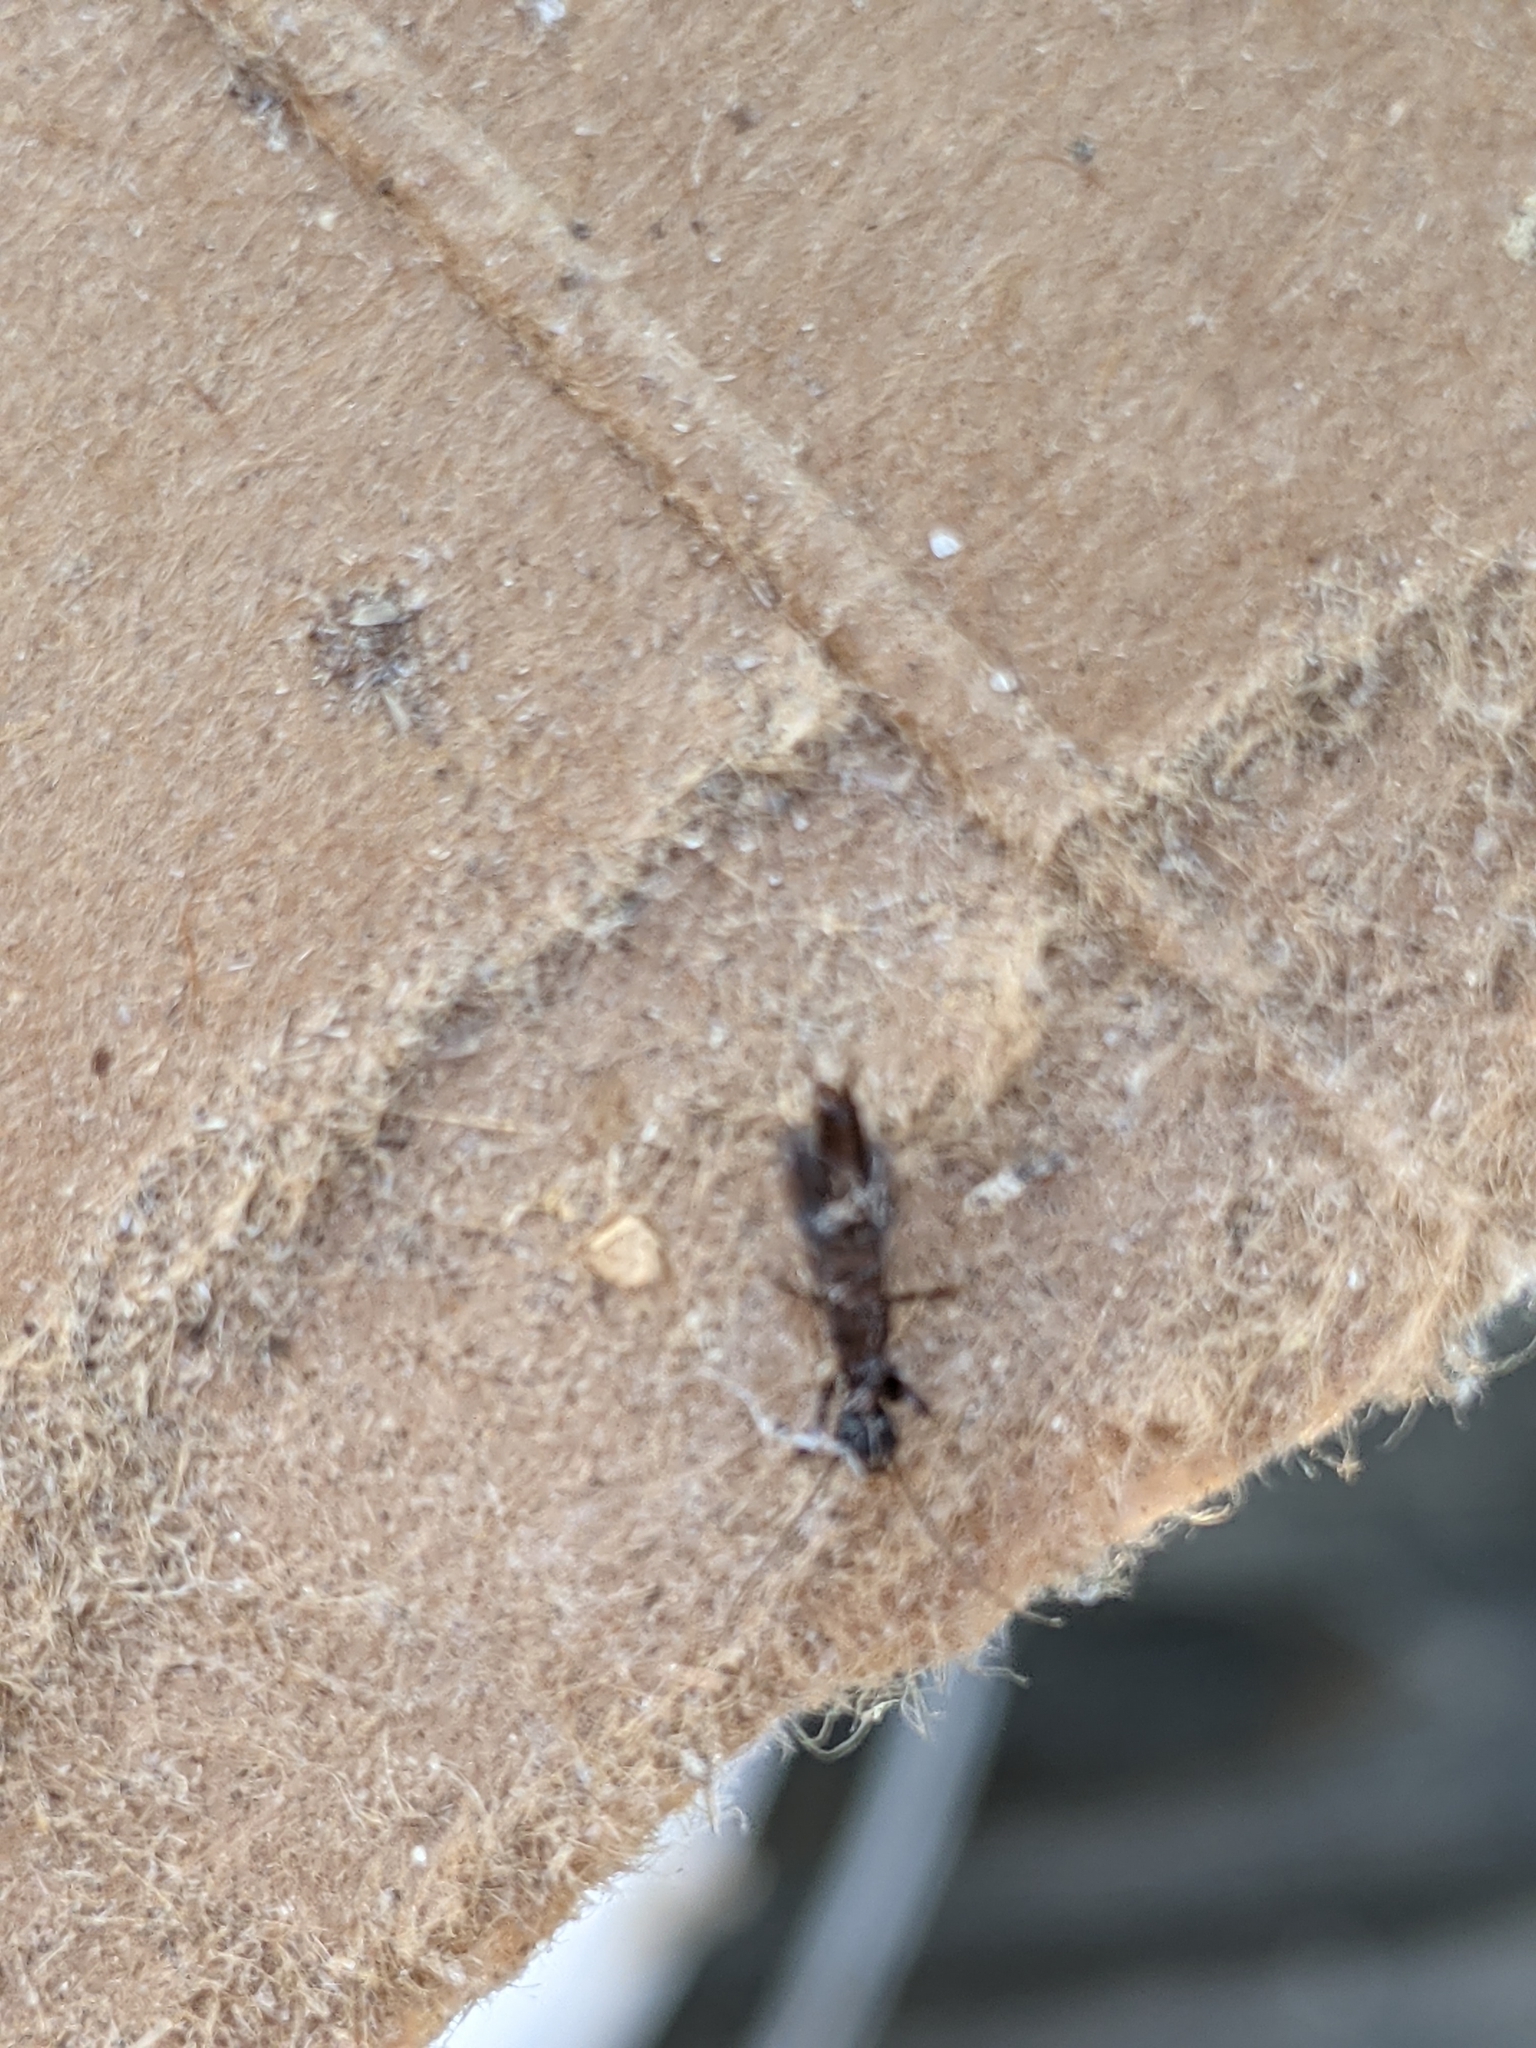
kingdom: Animalia
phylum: Arthropoda
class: Insecta
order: Embioptera
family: Oligotomidae
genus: Oligotoma
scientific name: Oligotoma nigra
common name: Black webspinner
